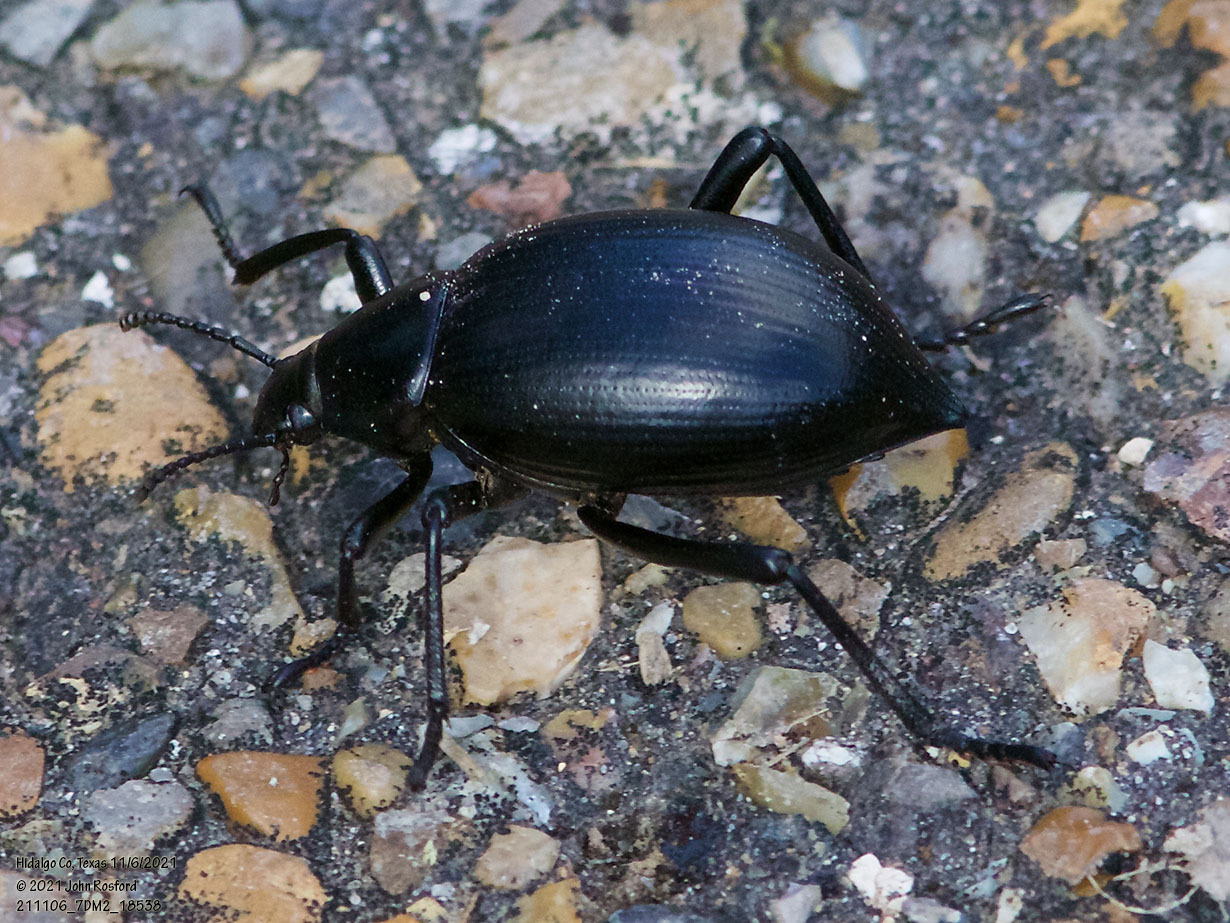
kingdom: Animalia
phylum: Arthropoda
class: Insecta
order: Coleoptera
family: Tenebrionidae
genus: Eleodes
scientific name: Eleodes spinipes
